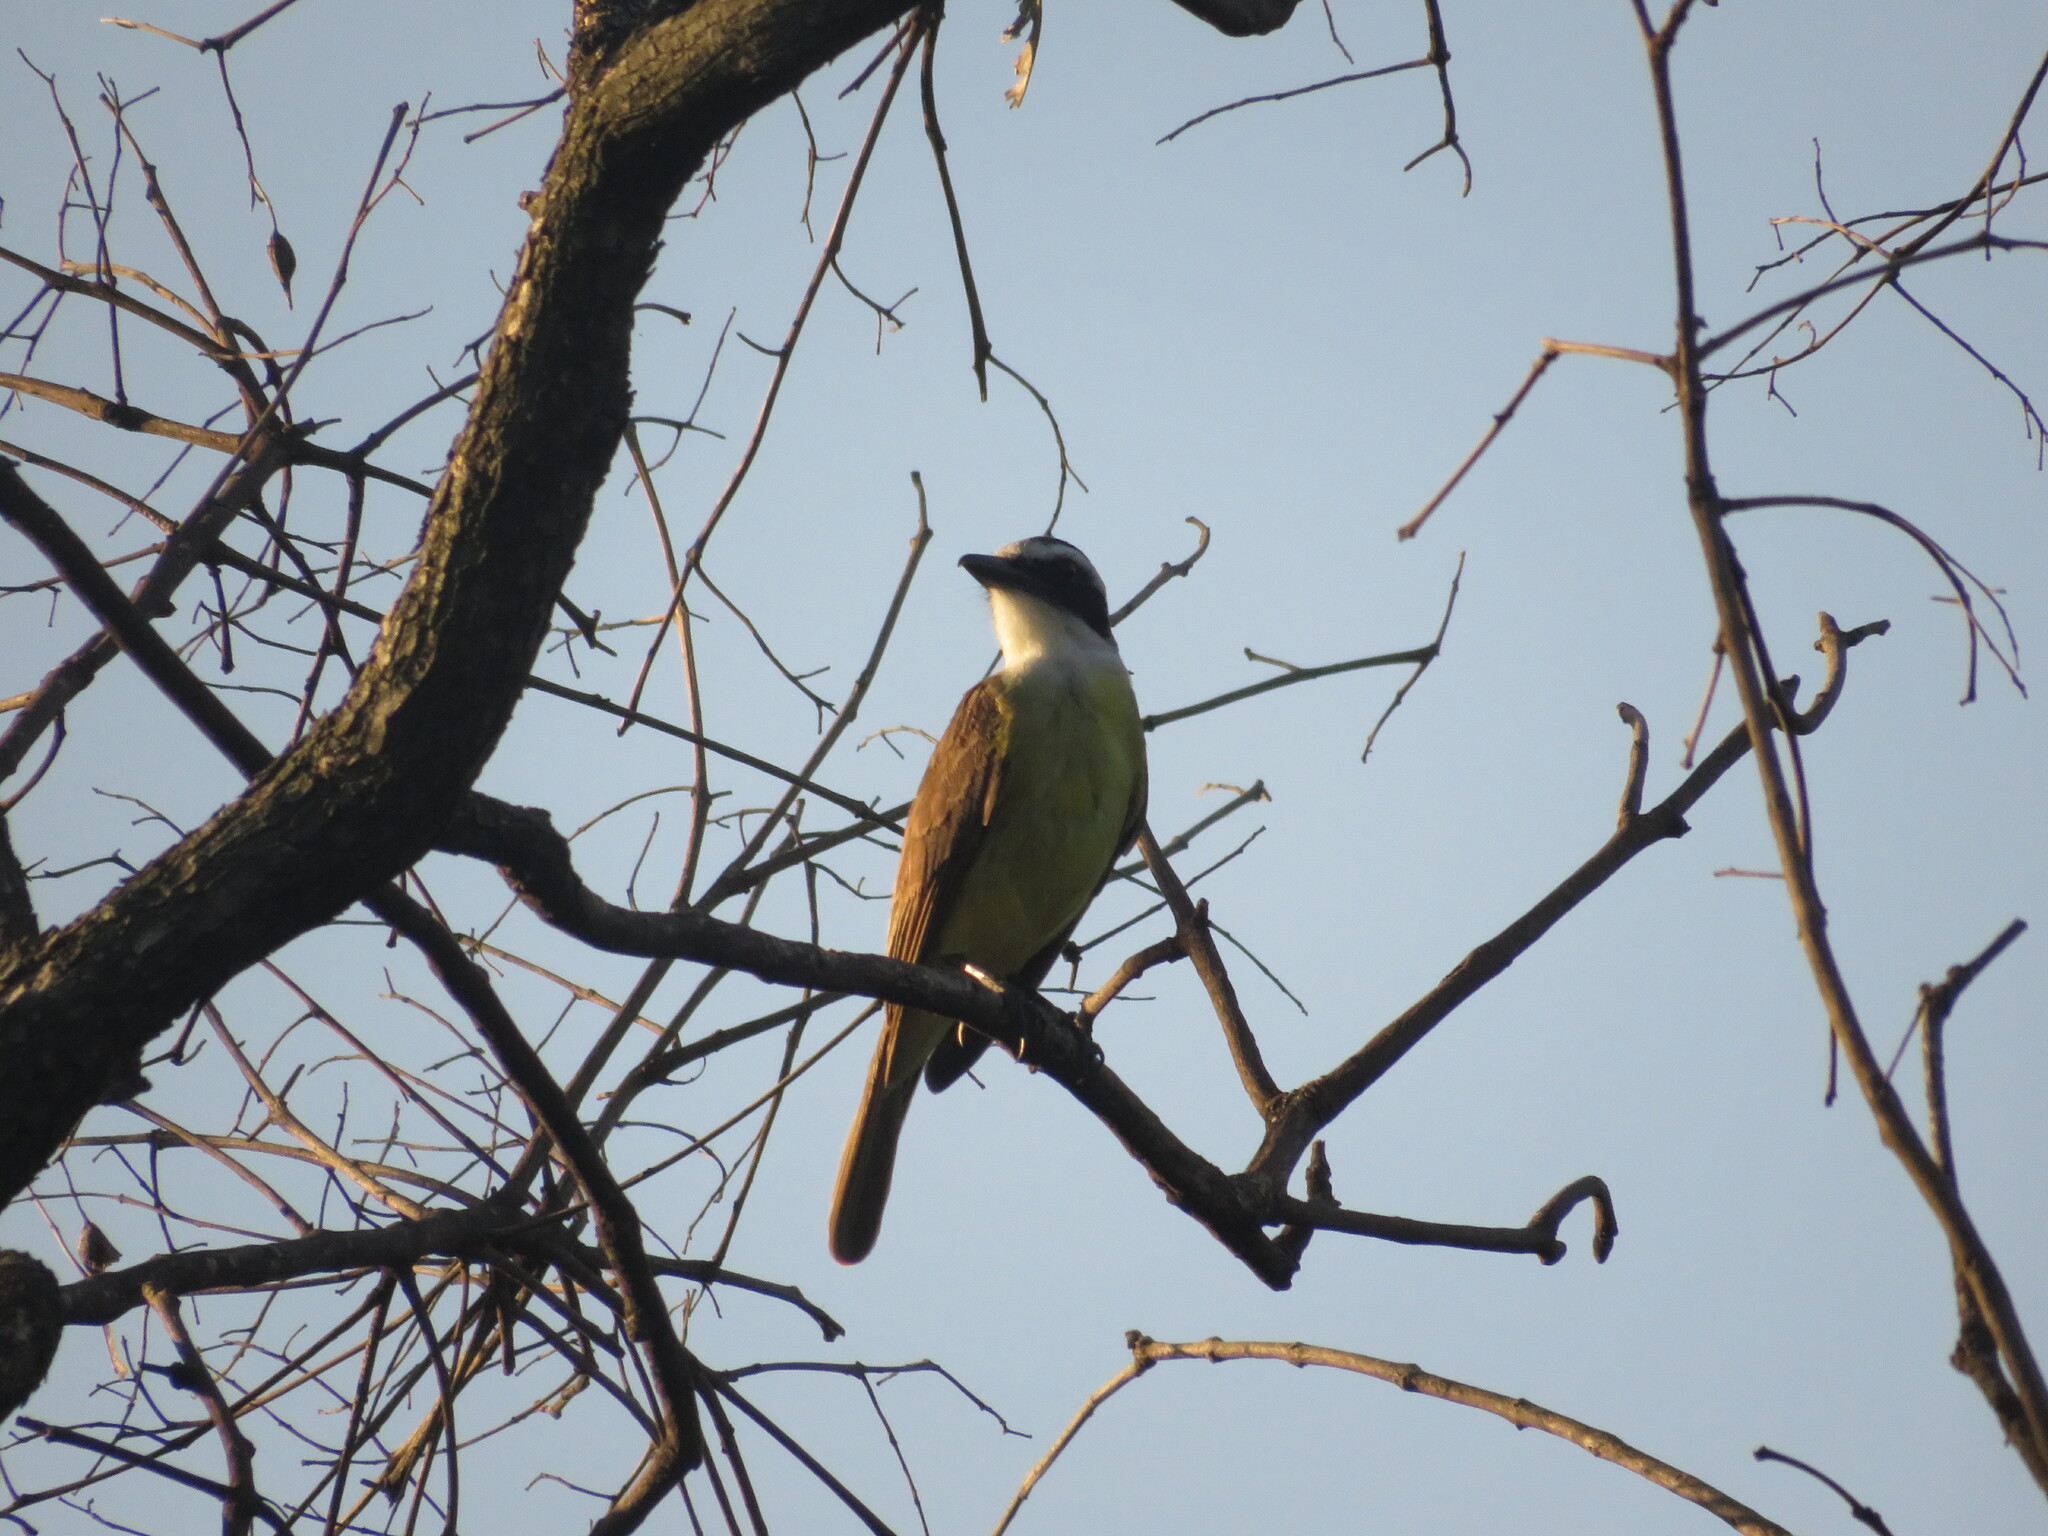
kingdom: Animalia
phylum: Chordata
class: Aves
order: Passeriformes
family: Tyrannidae
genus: Pitangus
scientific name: Pitangus sulphuratus
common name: Great kiskadee
